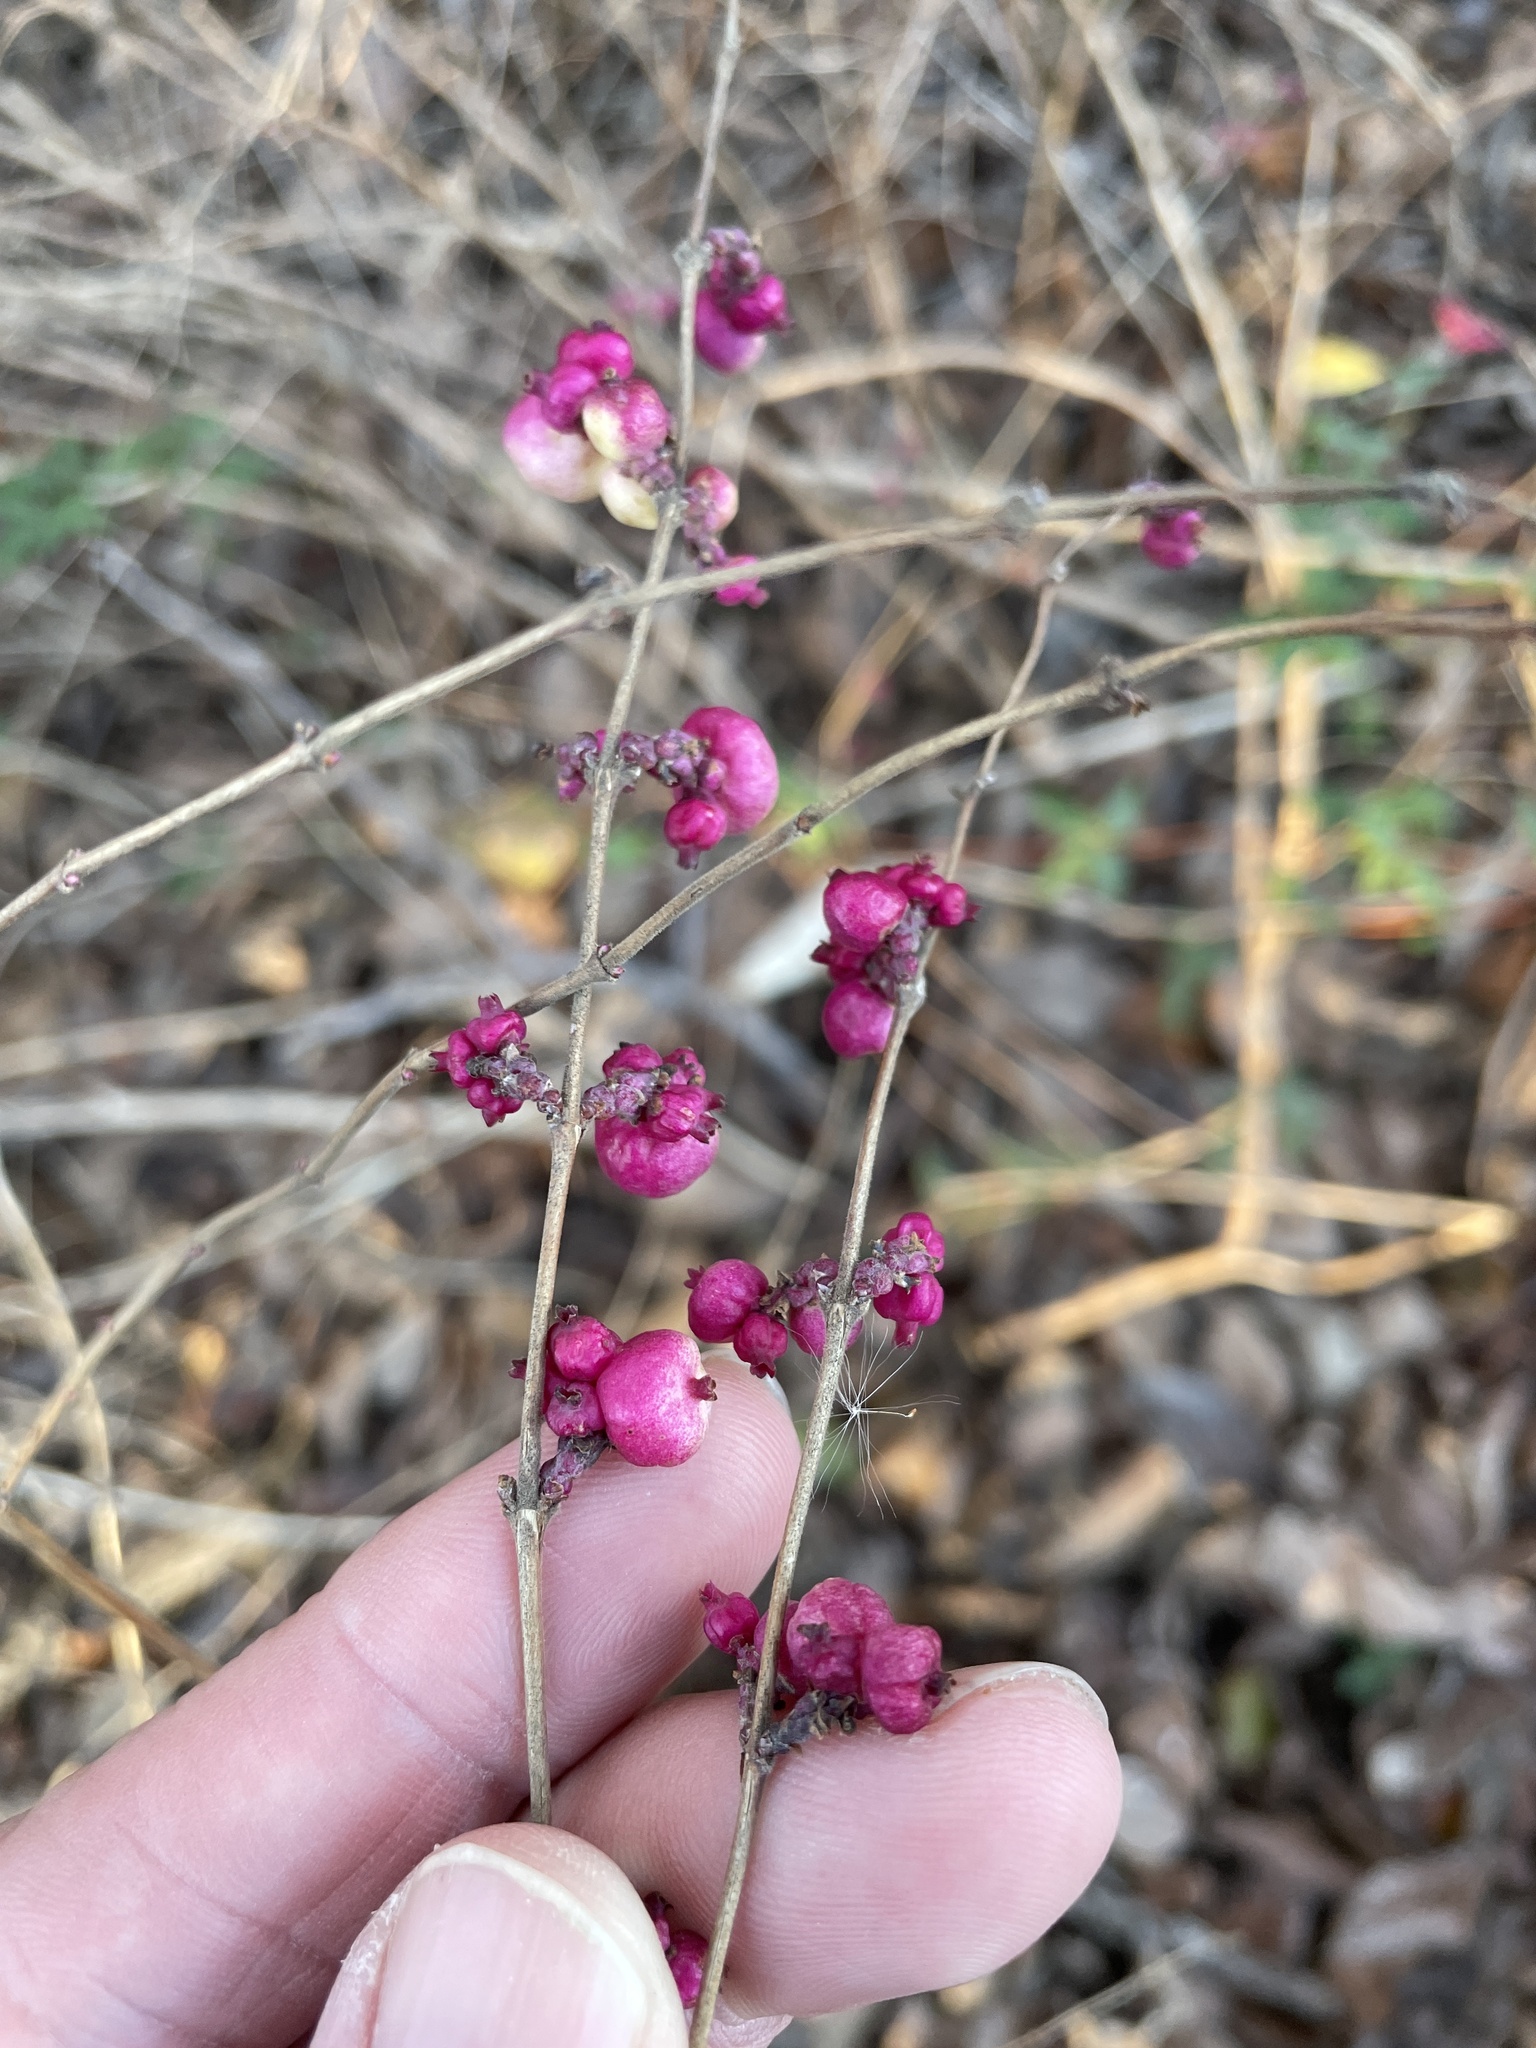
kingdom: Plantae
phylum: Tracheophyta
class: Magnoliopsida
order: Dipsacales
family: Caprifoliaceae
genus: Symphoricarpos
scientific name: Symphoricarpos orbiculatus
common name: Coralberry
